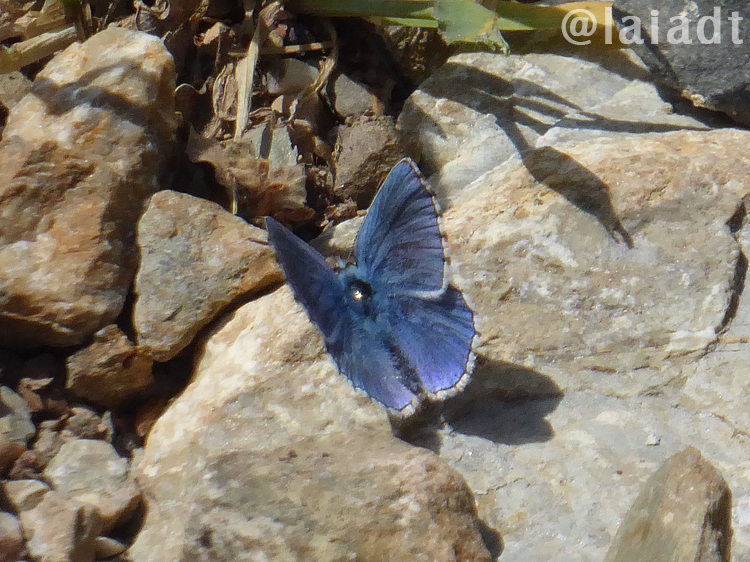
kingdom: Animalia
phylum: Arthropoda
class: Insecta
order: Lepidoptera
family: Lycaenidae
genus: Lysandra
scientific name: Lysandra bellargus
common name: Adonis blue
